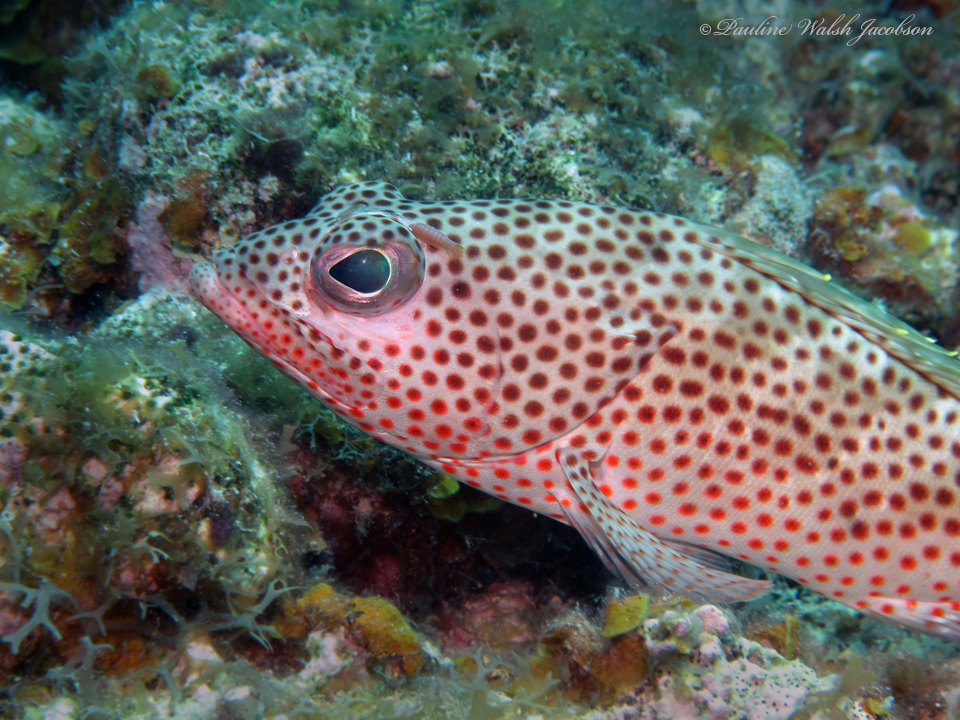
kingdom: Animalia
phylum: Chordata
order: Perciformes
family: Serranidae
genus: Epinephelus
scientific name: Epinephelus guttatus
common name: Red hind
